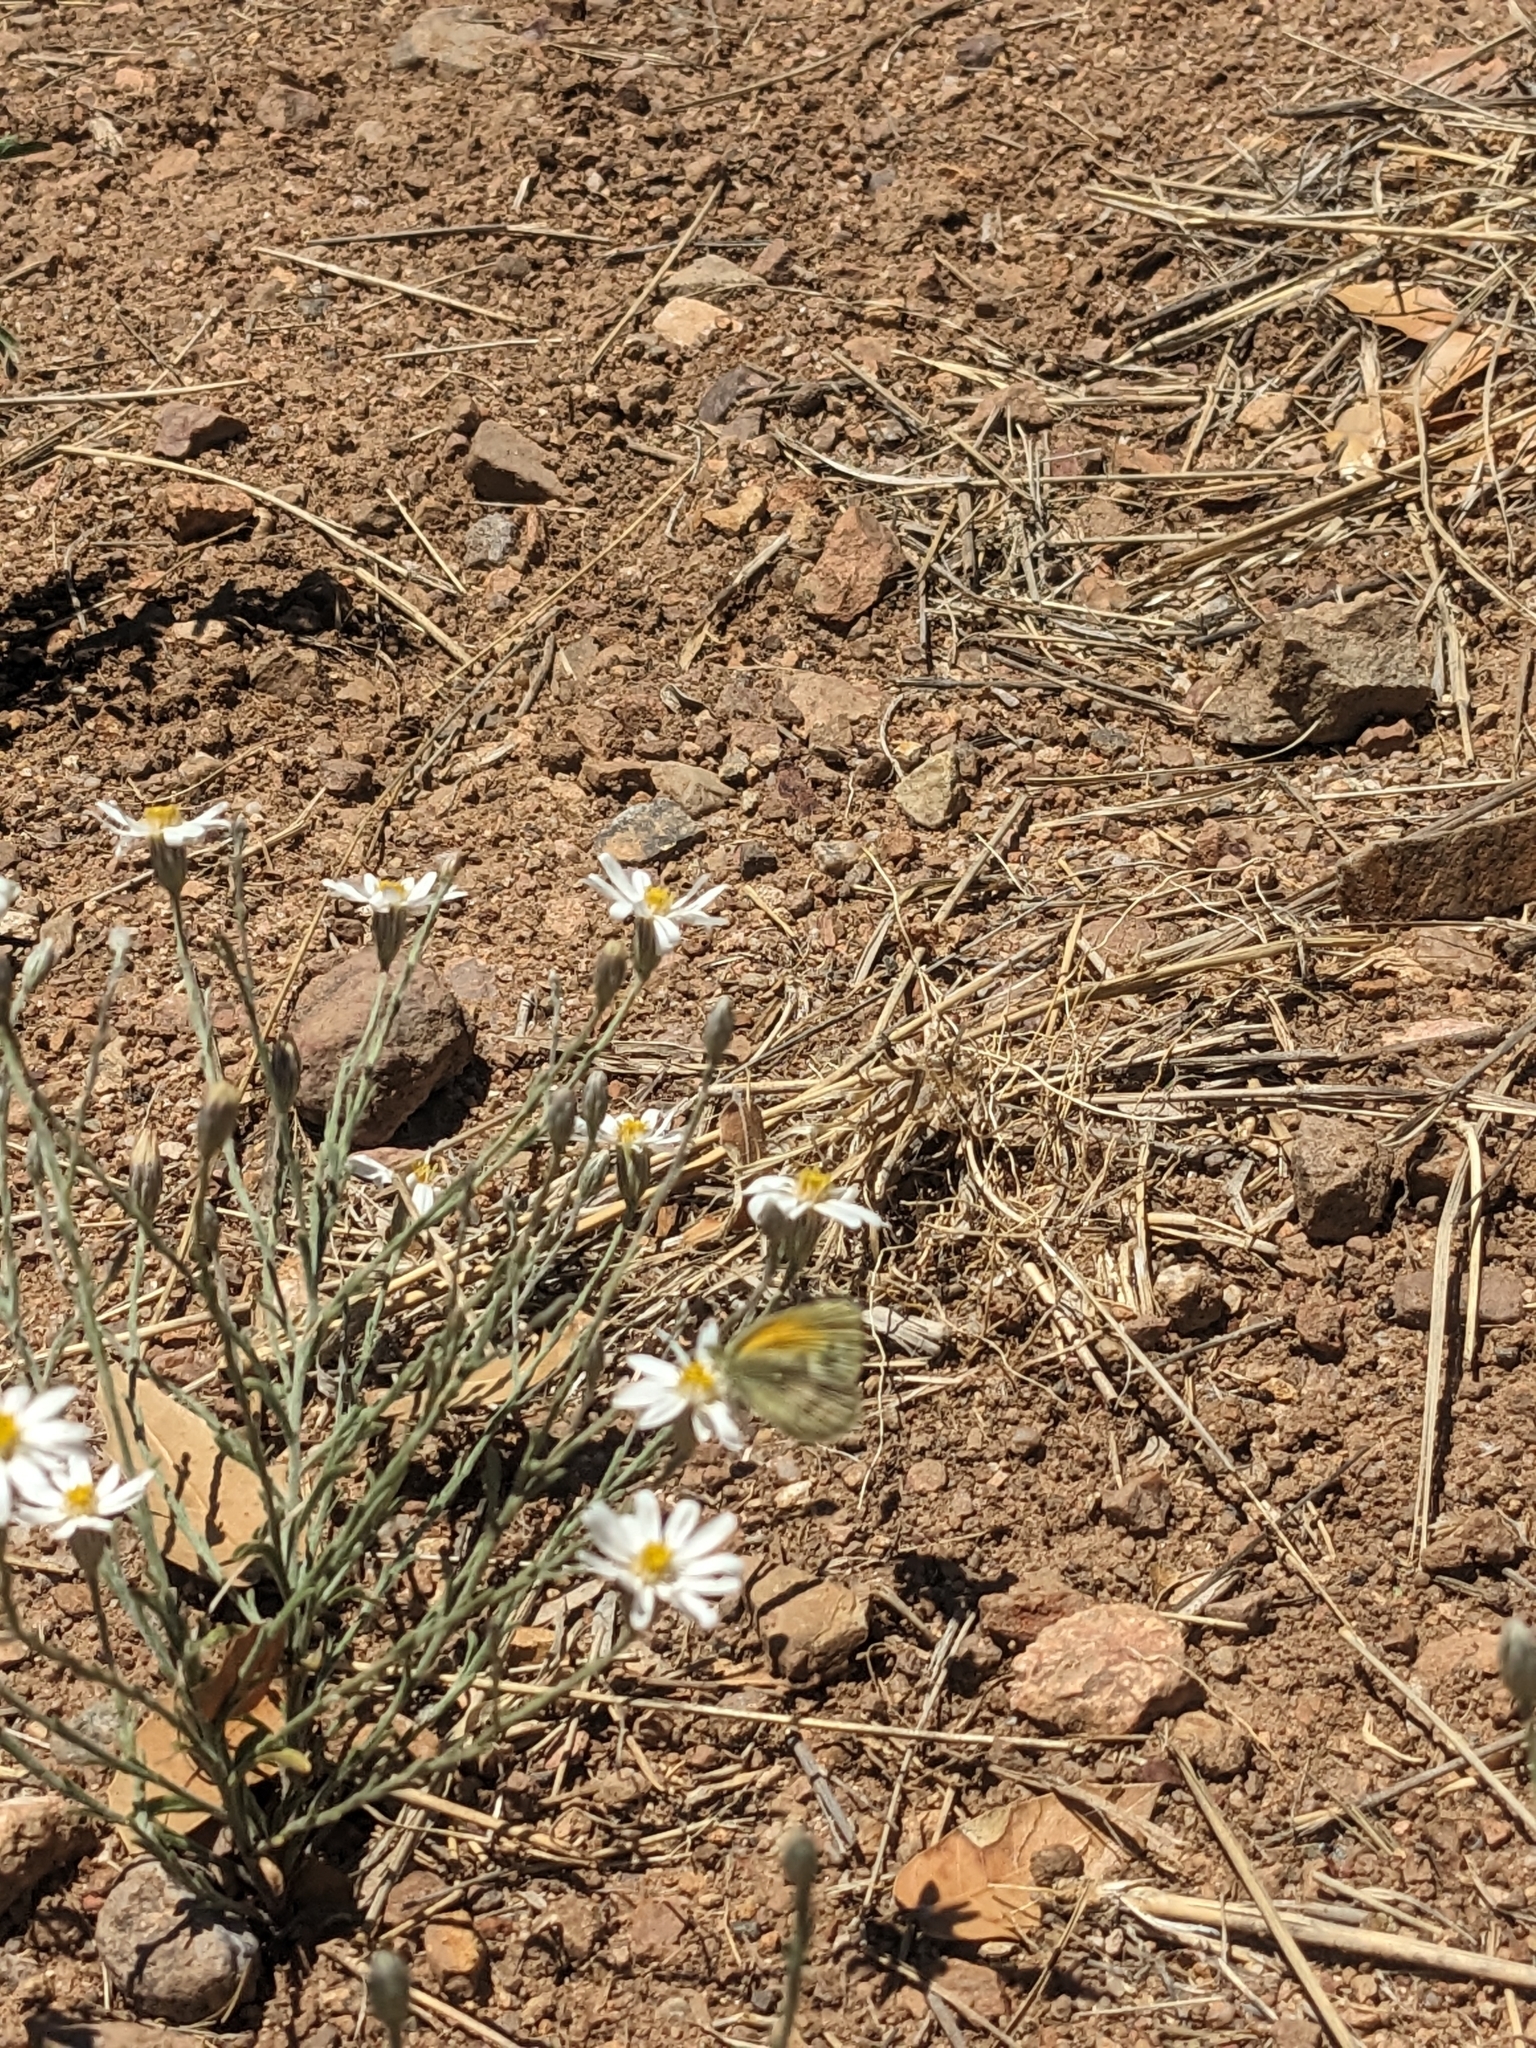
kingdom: Plantae
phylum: Tracheophyta
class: Magnoliopsida
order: Asterales
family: Asteraceae
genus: Chaetopappa
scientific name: Chaetopappa ericoides
